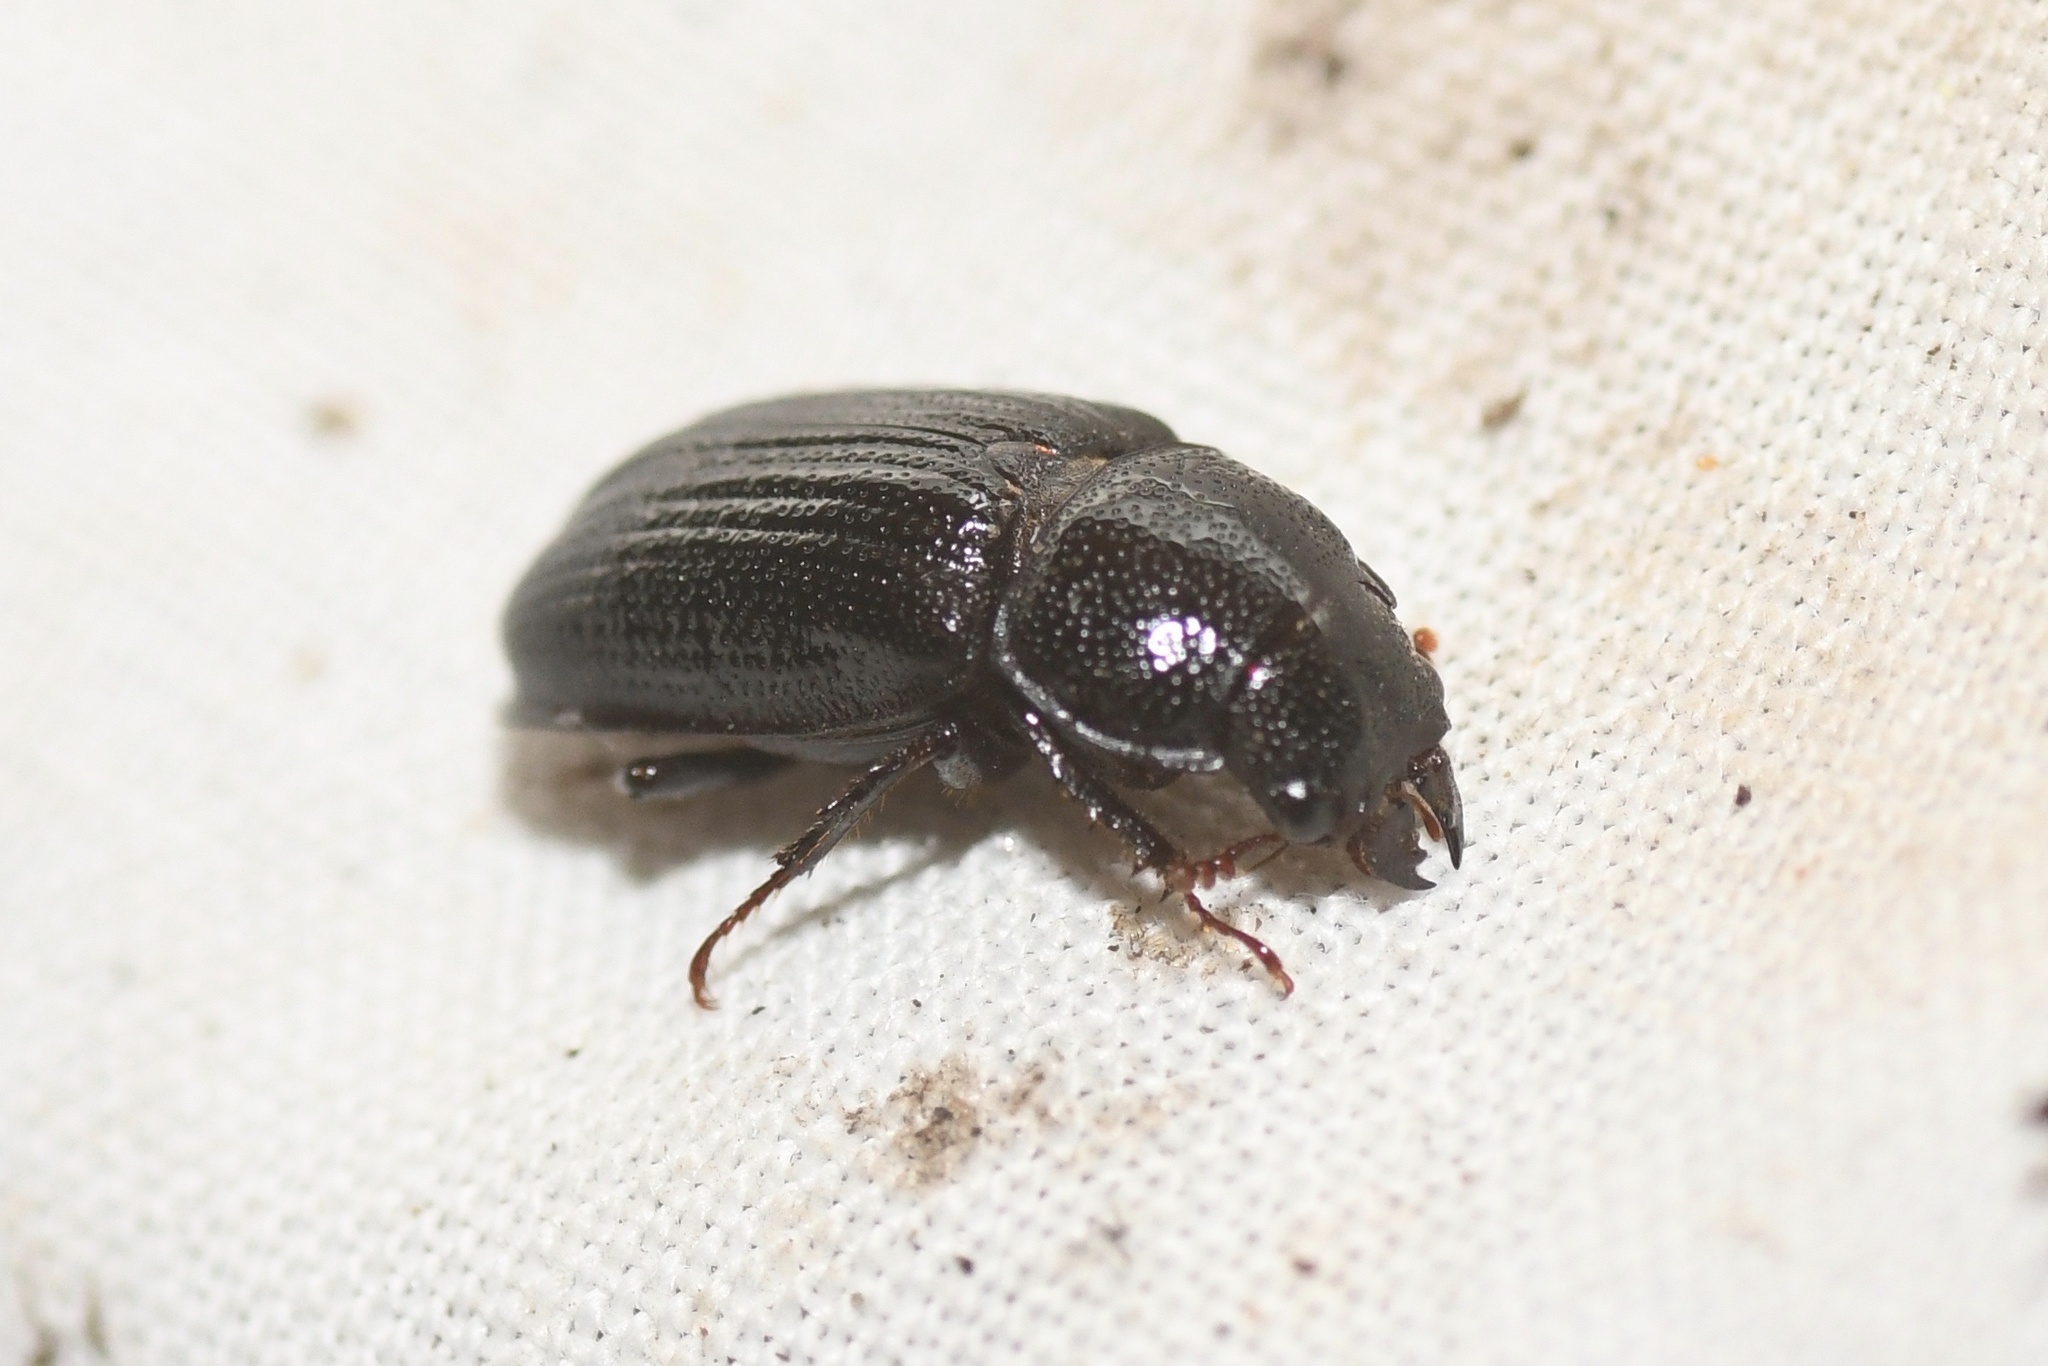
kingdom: Animalia
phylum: Arthropoda
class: Insecta
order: Coleoptera
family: Lucanidae
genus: Ceruchus
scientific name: Ceruchus piceus
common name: Red-rot decay stag beetle
